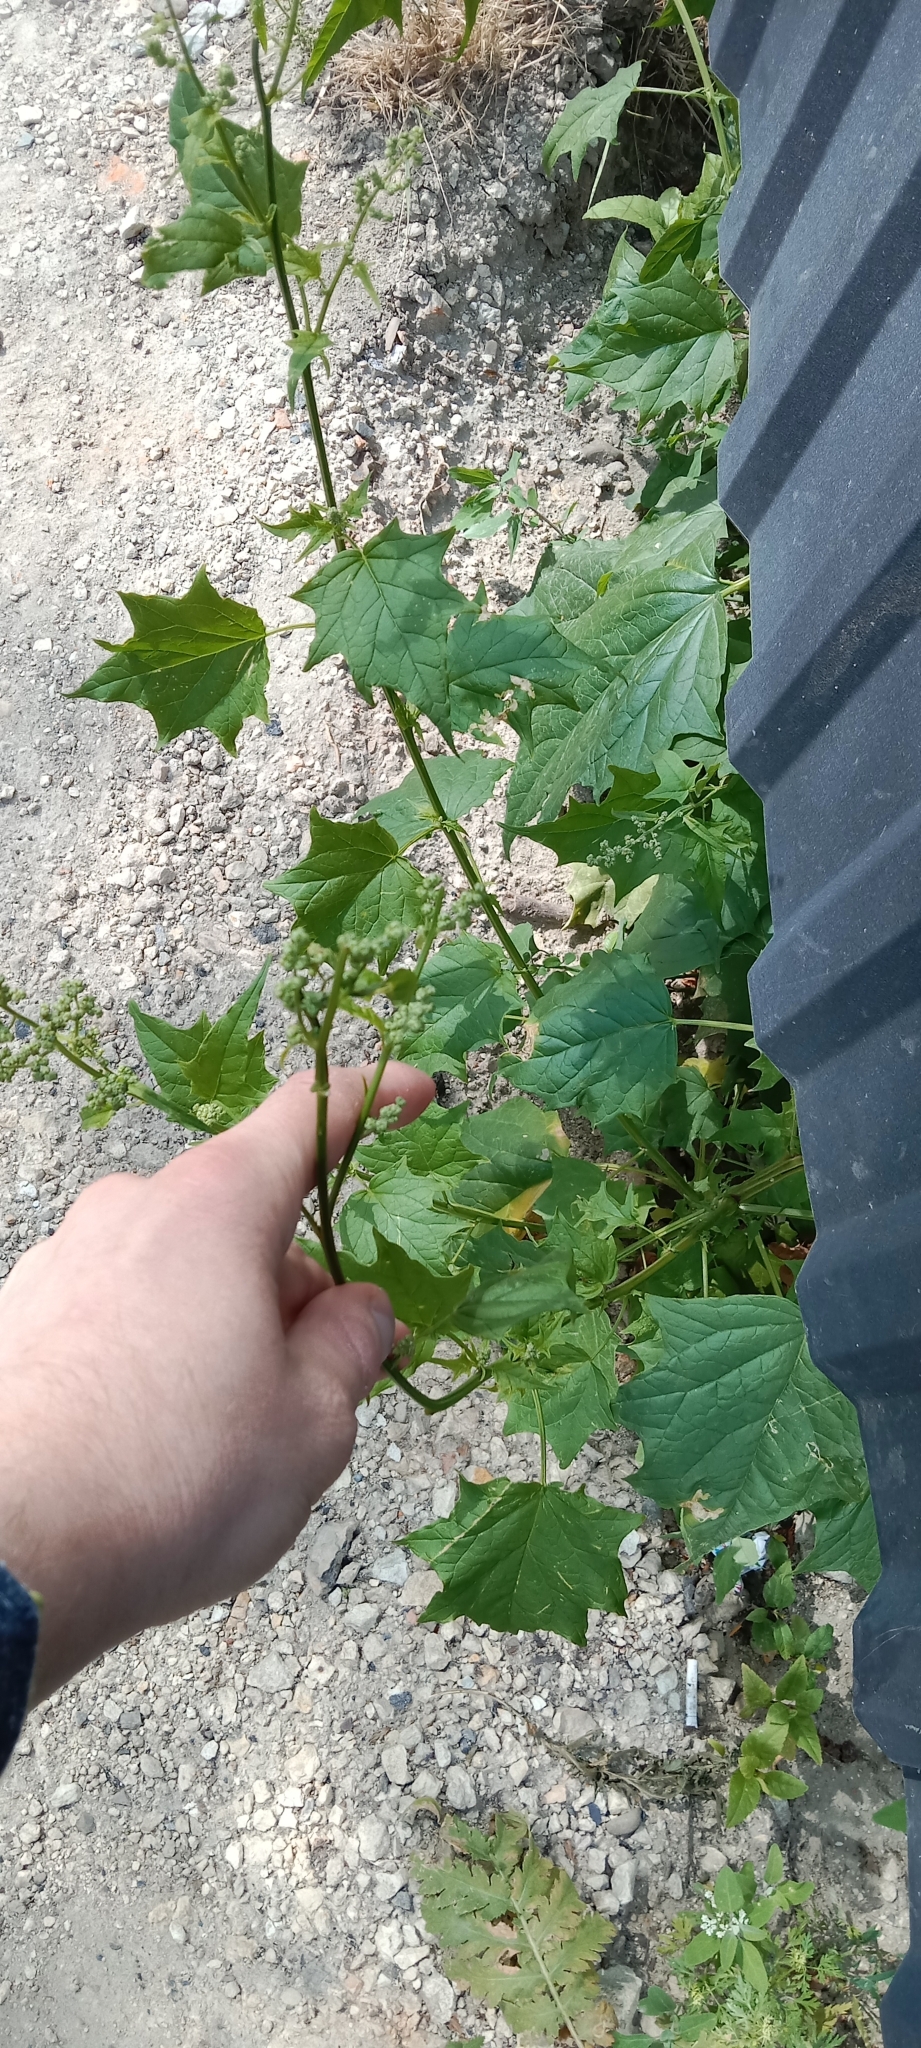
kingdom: Plantae
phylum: Tracheophyta
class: Magnoliopsida
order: Caryophyllales
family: Amaranthaceae
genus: Chenopodiastrum
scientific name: Chenopodiastrum hybridum
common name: Mapleleaf goosefoot
